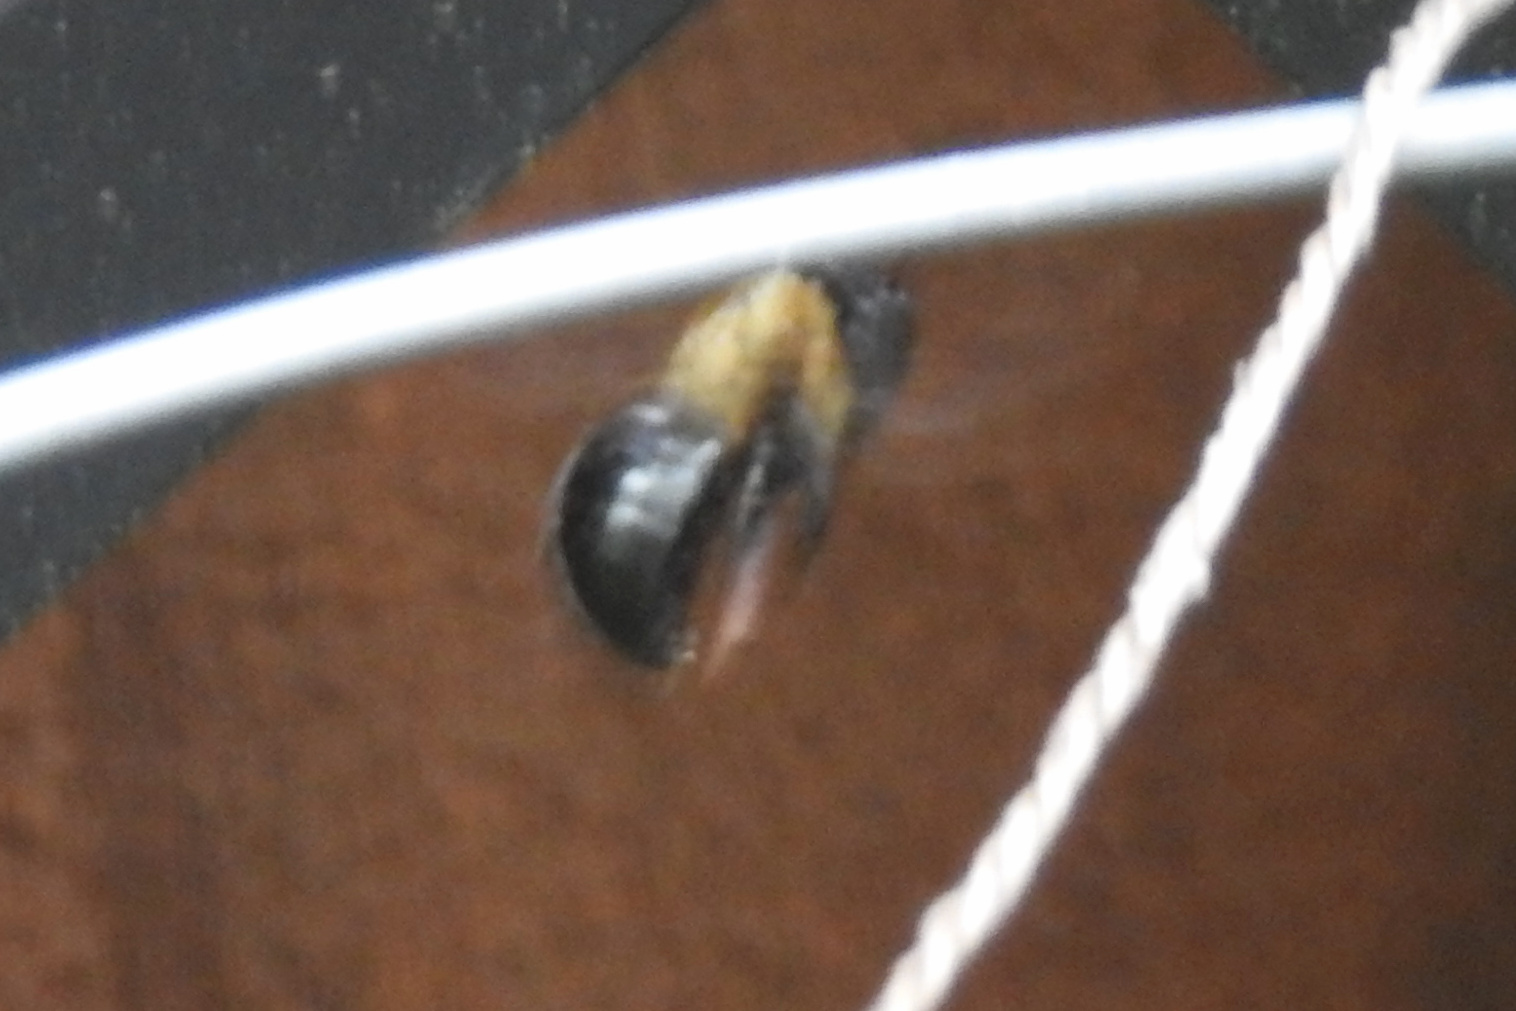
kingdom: Animalia
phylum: Arthropoda
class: Insecta
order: Hymenoptera
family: Apidae
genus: Xylocopa
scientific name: Xylocopa virginica
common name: Carpenter bee
